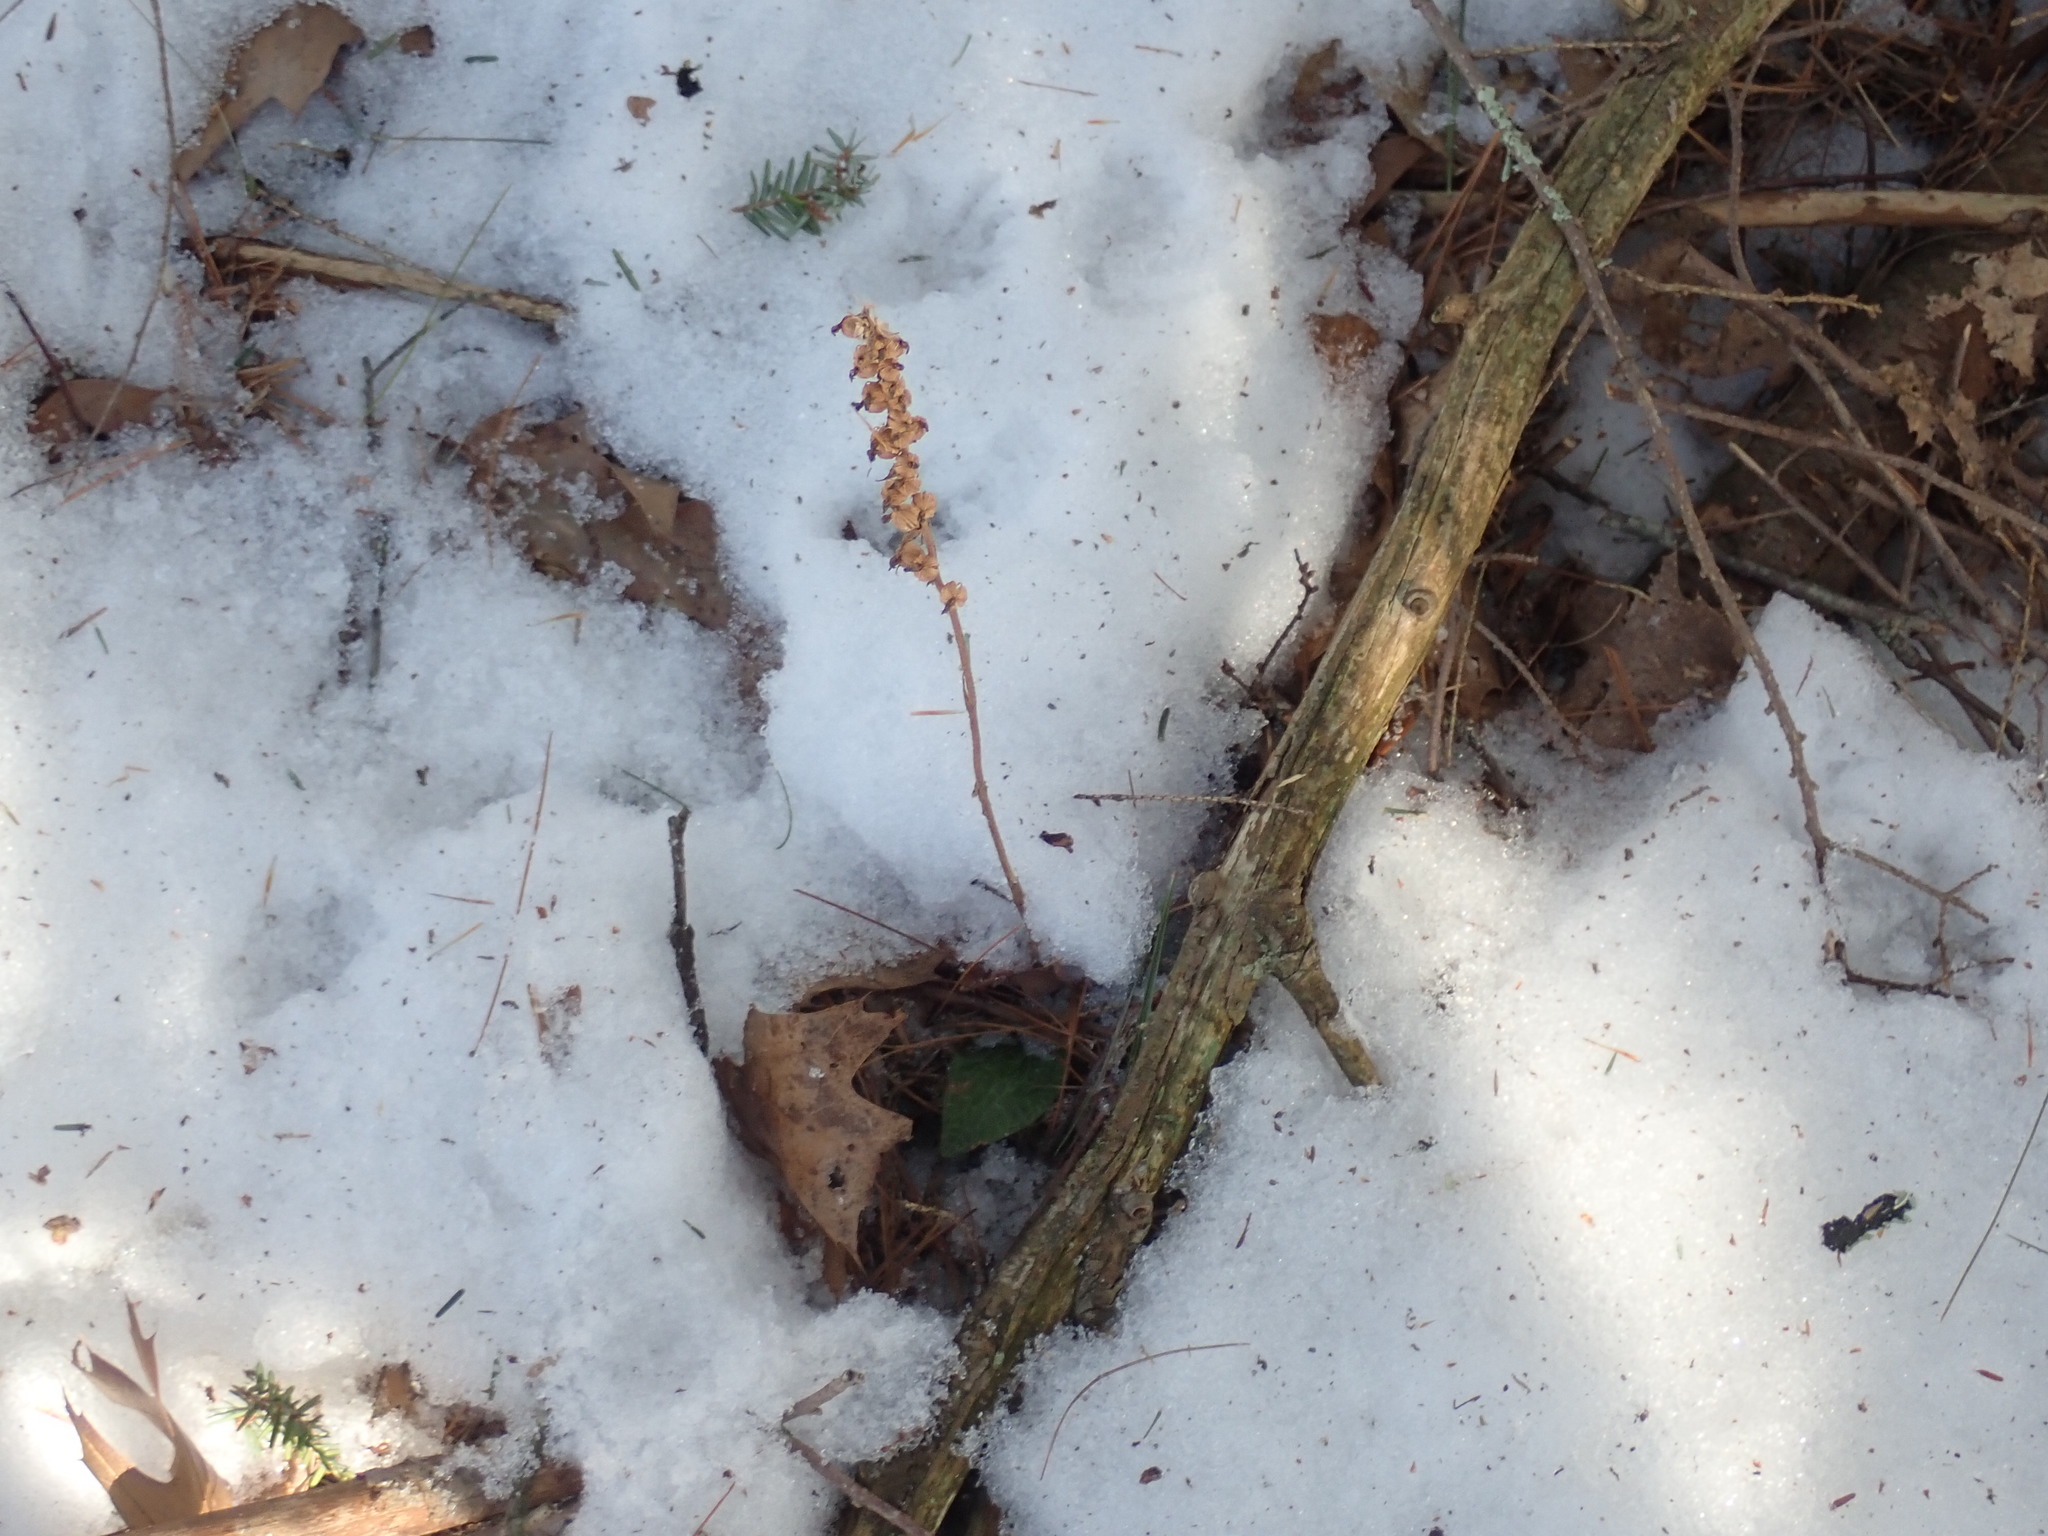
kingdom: Plantae
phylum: Tracheophyta
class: Liliopsida
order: Asparagales
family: Orchidaceae
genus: Goodyera
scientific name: Goodyera tesselata
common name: Checkered rattlesnake-plantain
